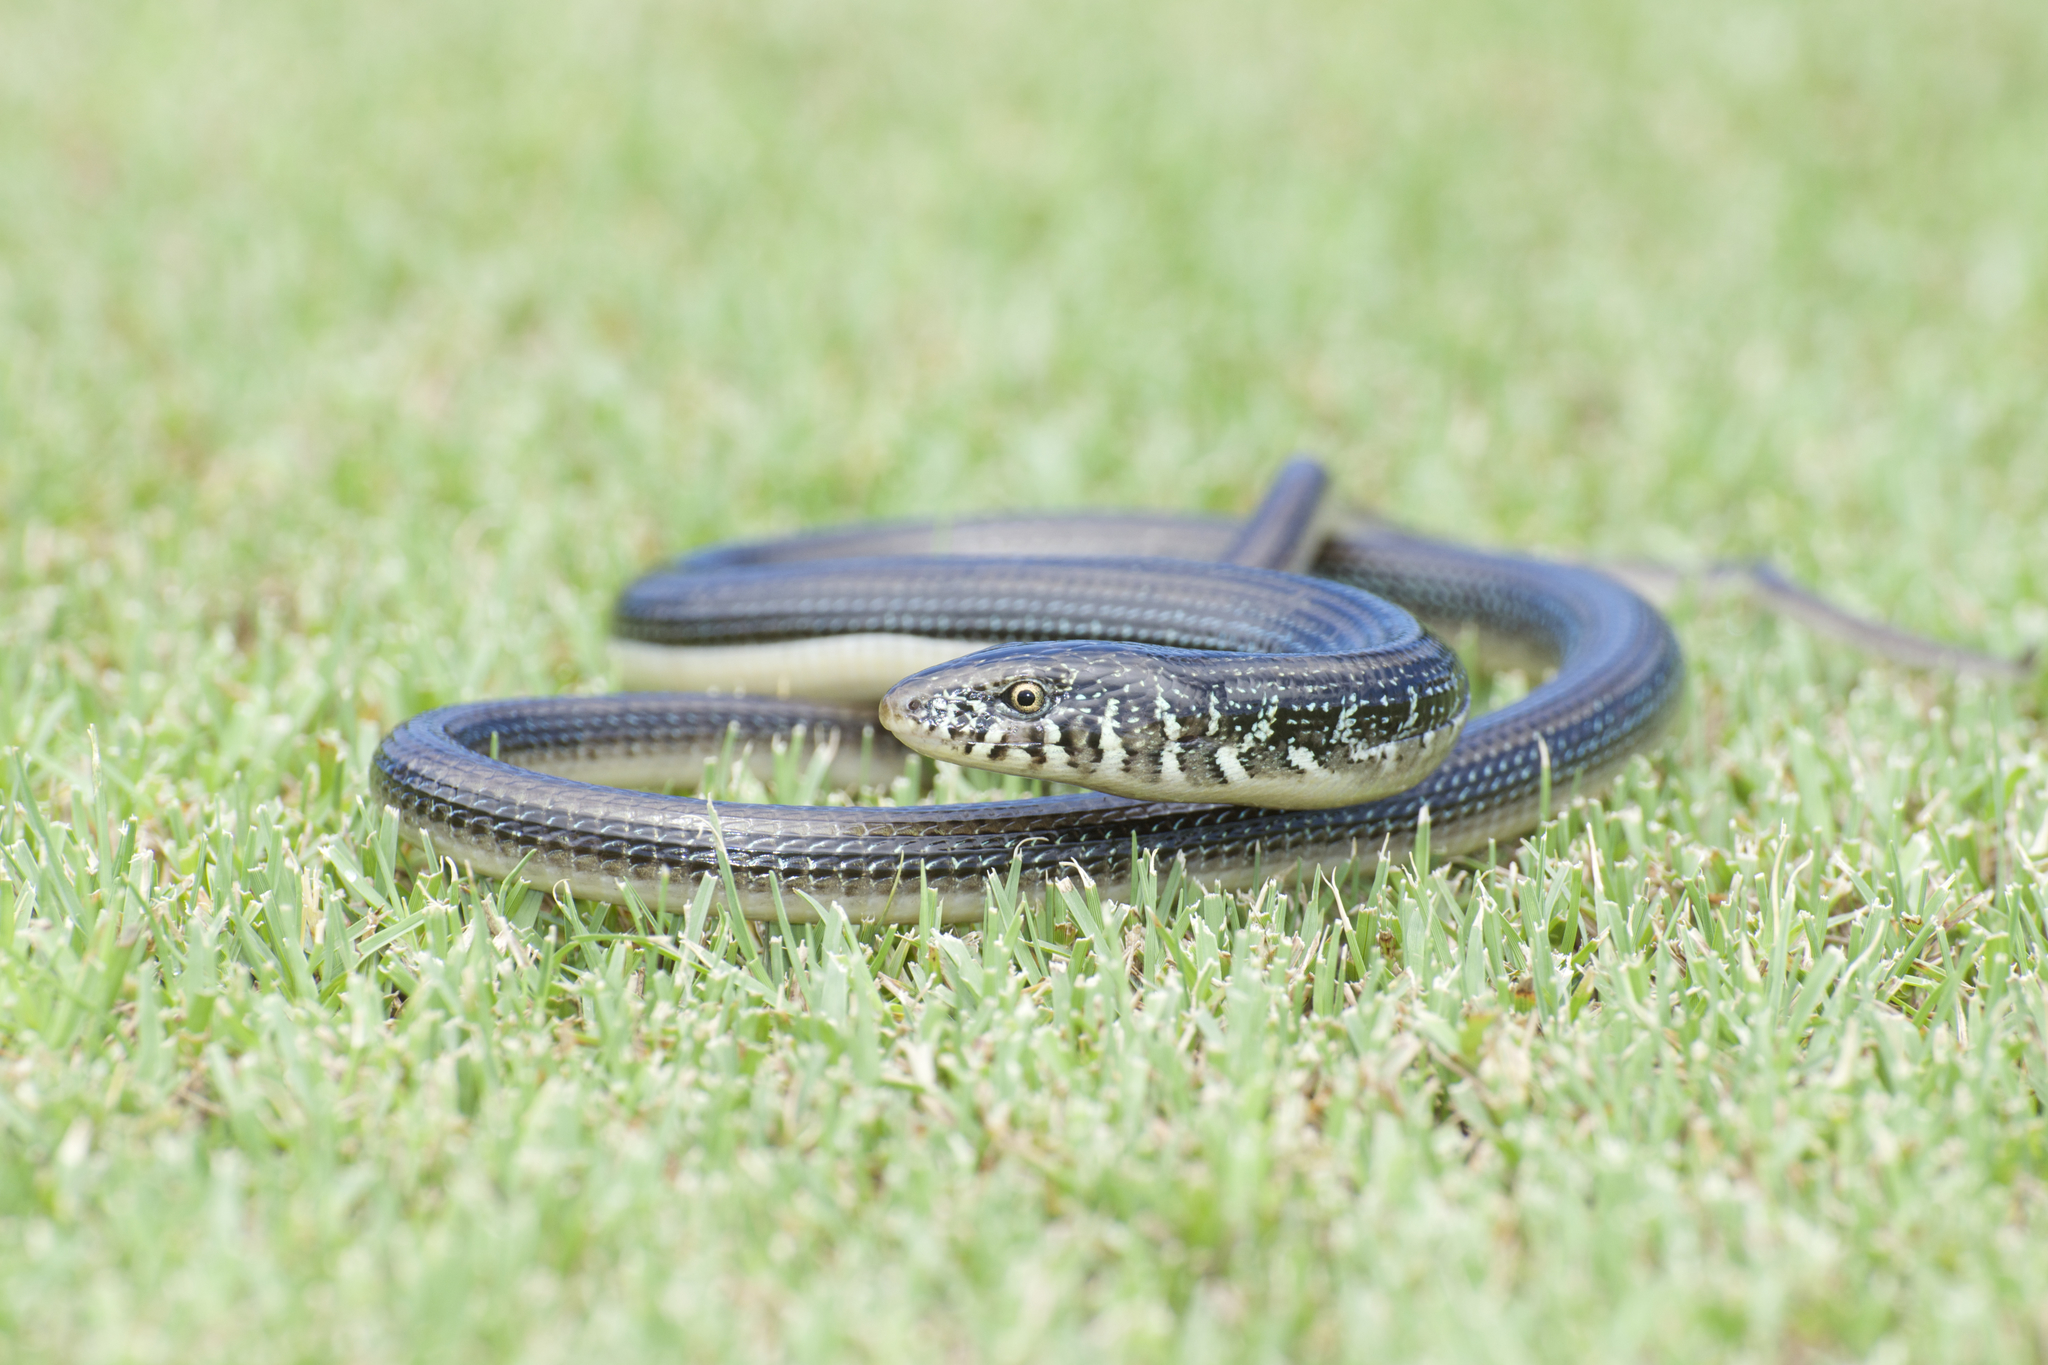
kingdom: Animalia
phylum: Chordata
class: Squamata
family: Anguidae
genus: Ophisaurus
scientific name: Ophisaurus ventralis
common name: Eastern glass lizard
